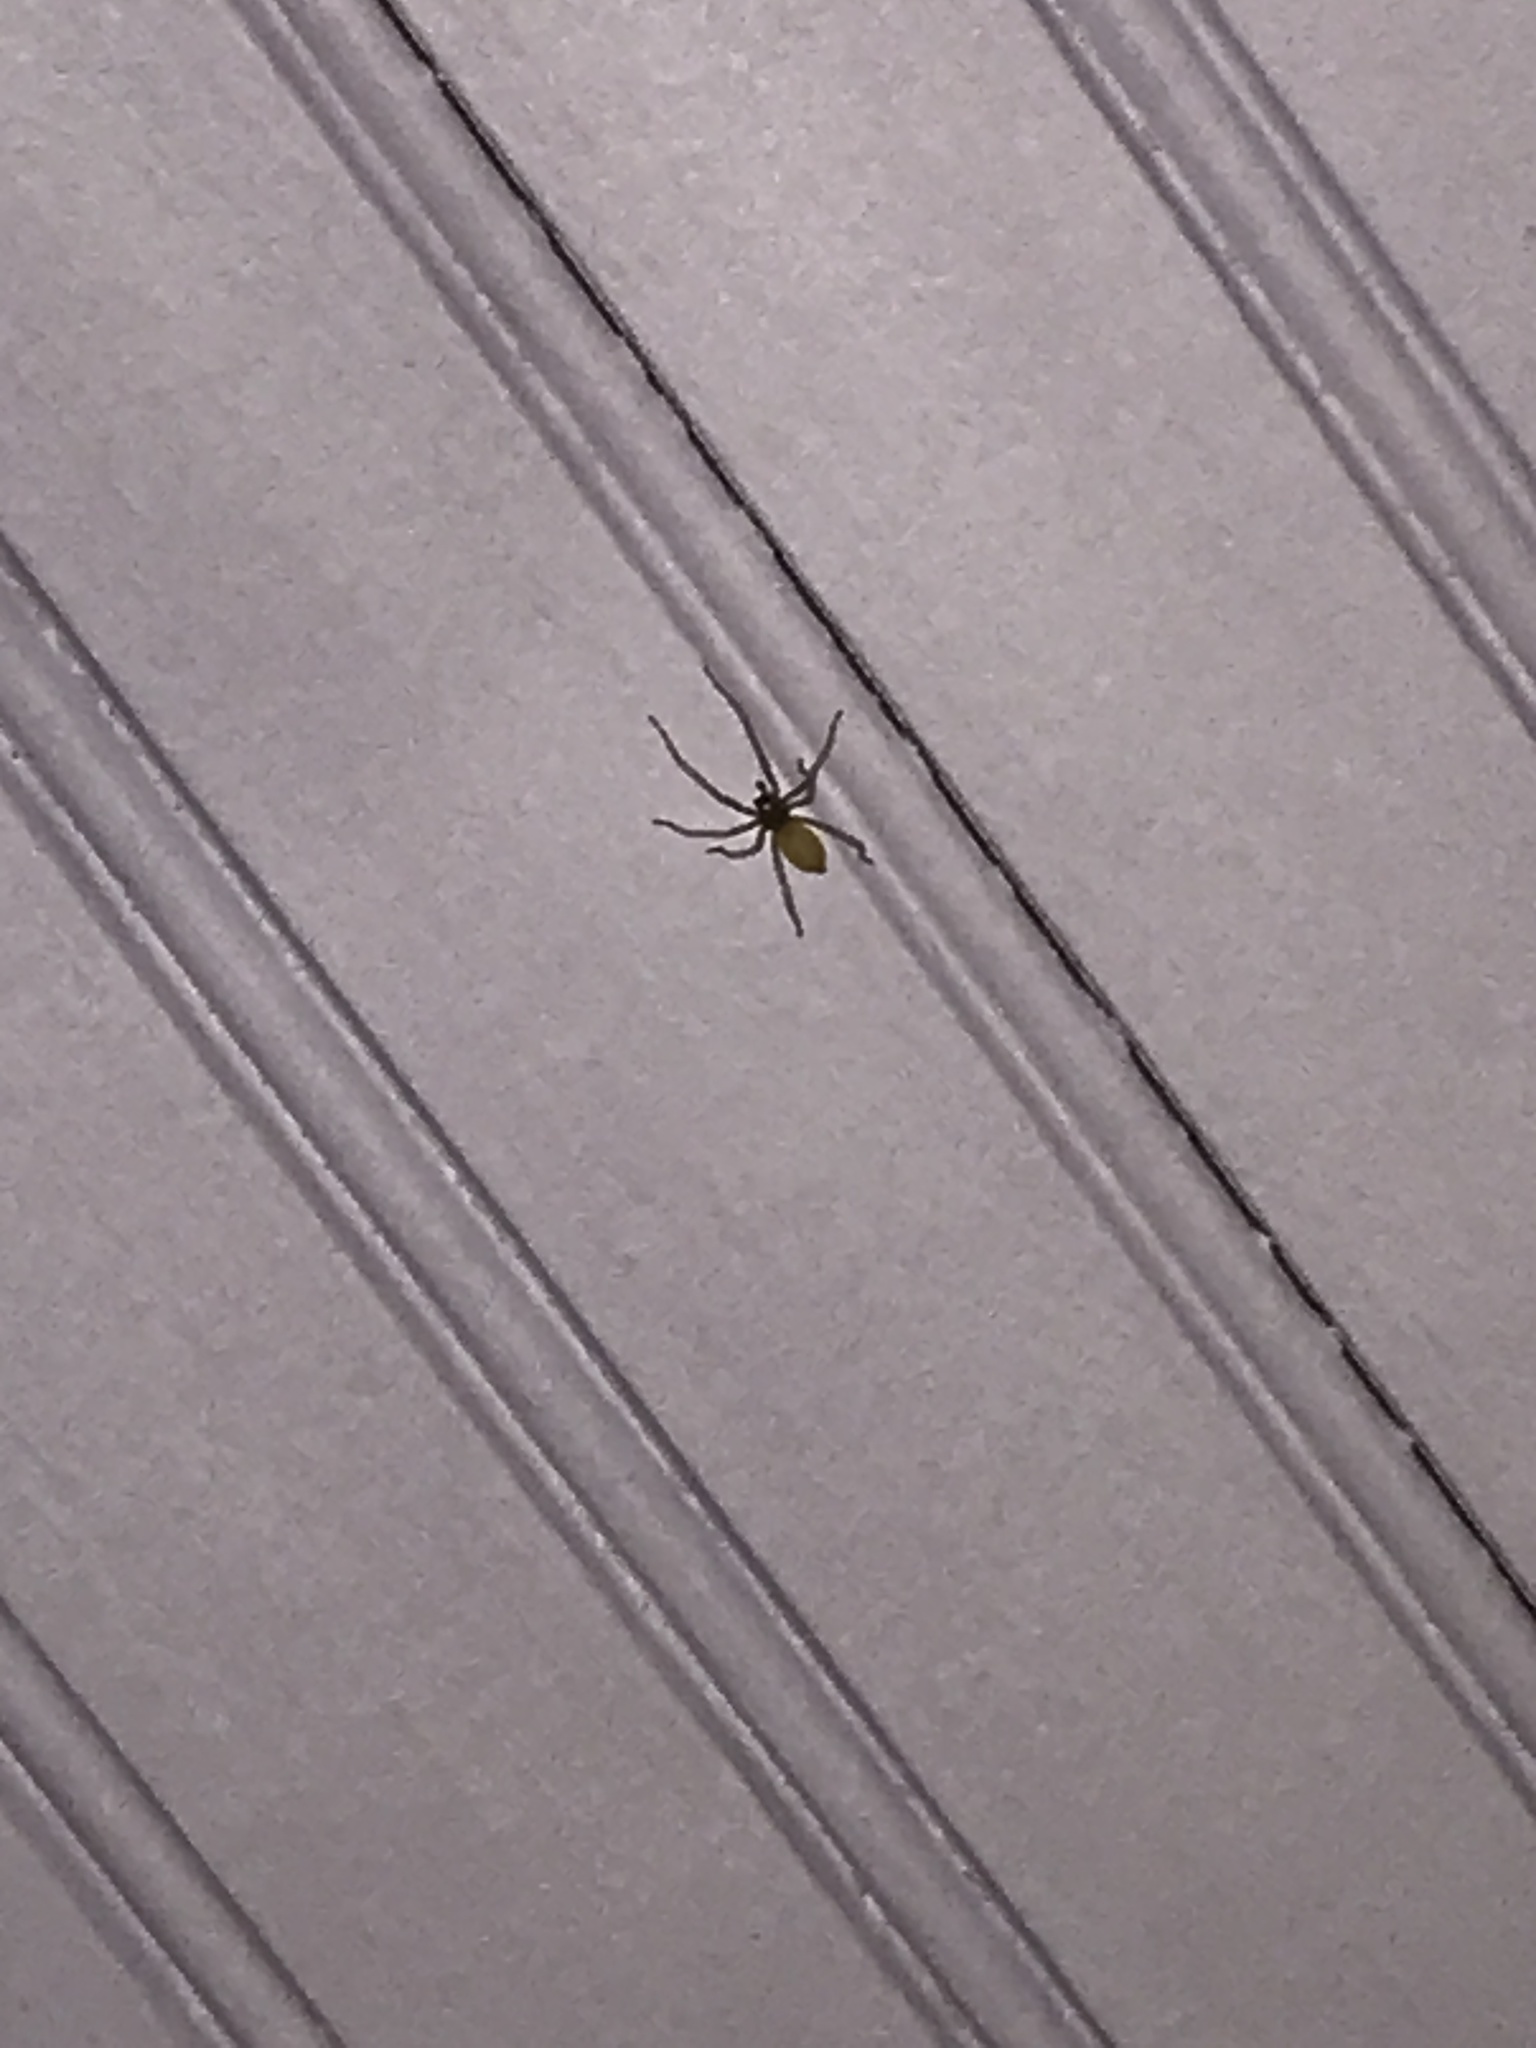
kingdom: Animalia
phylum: Arthropoda
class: Arachnida
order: Araneae
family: Cheiracanthiidae
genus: Cheiracanthium
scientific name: Cheiracanthium mildei
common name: Northern yellow sac spider
